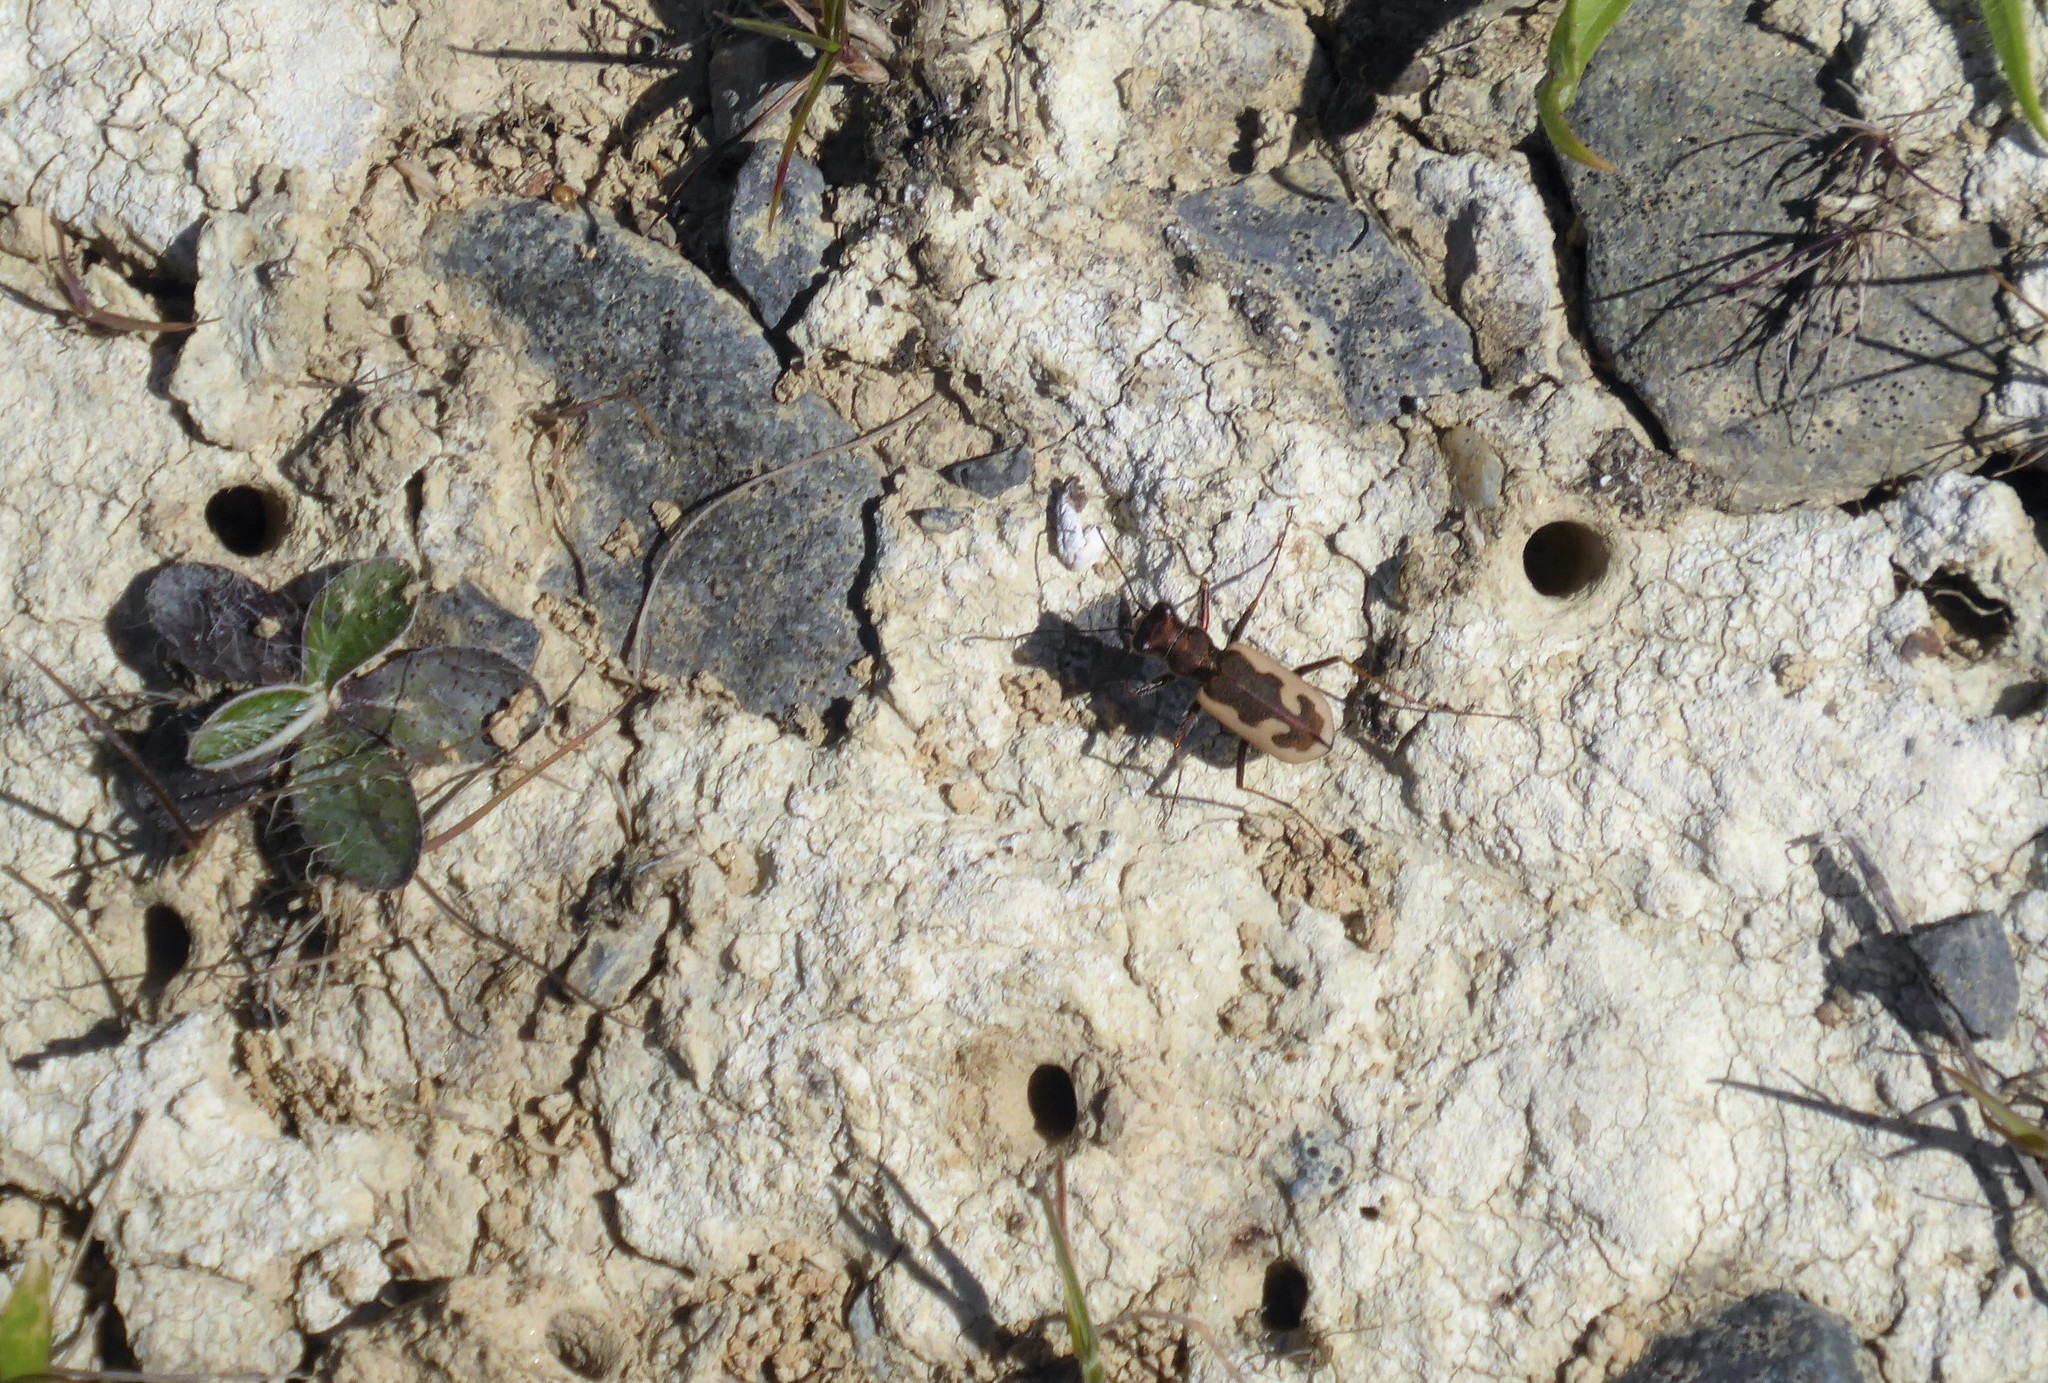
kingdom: Animalia
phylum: Arthropoda
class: Insecta
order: Coleoptera
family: Carabidae
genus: Neocicindela
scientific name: Neocicindela latecincta
